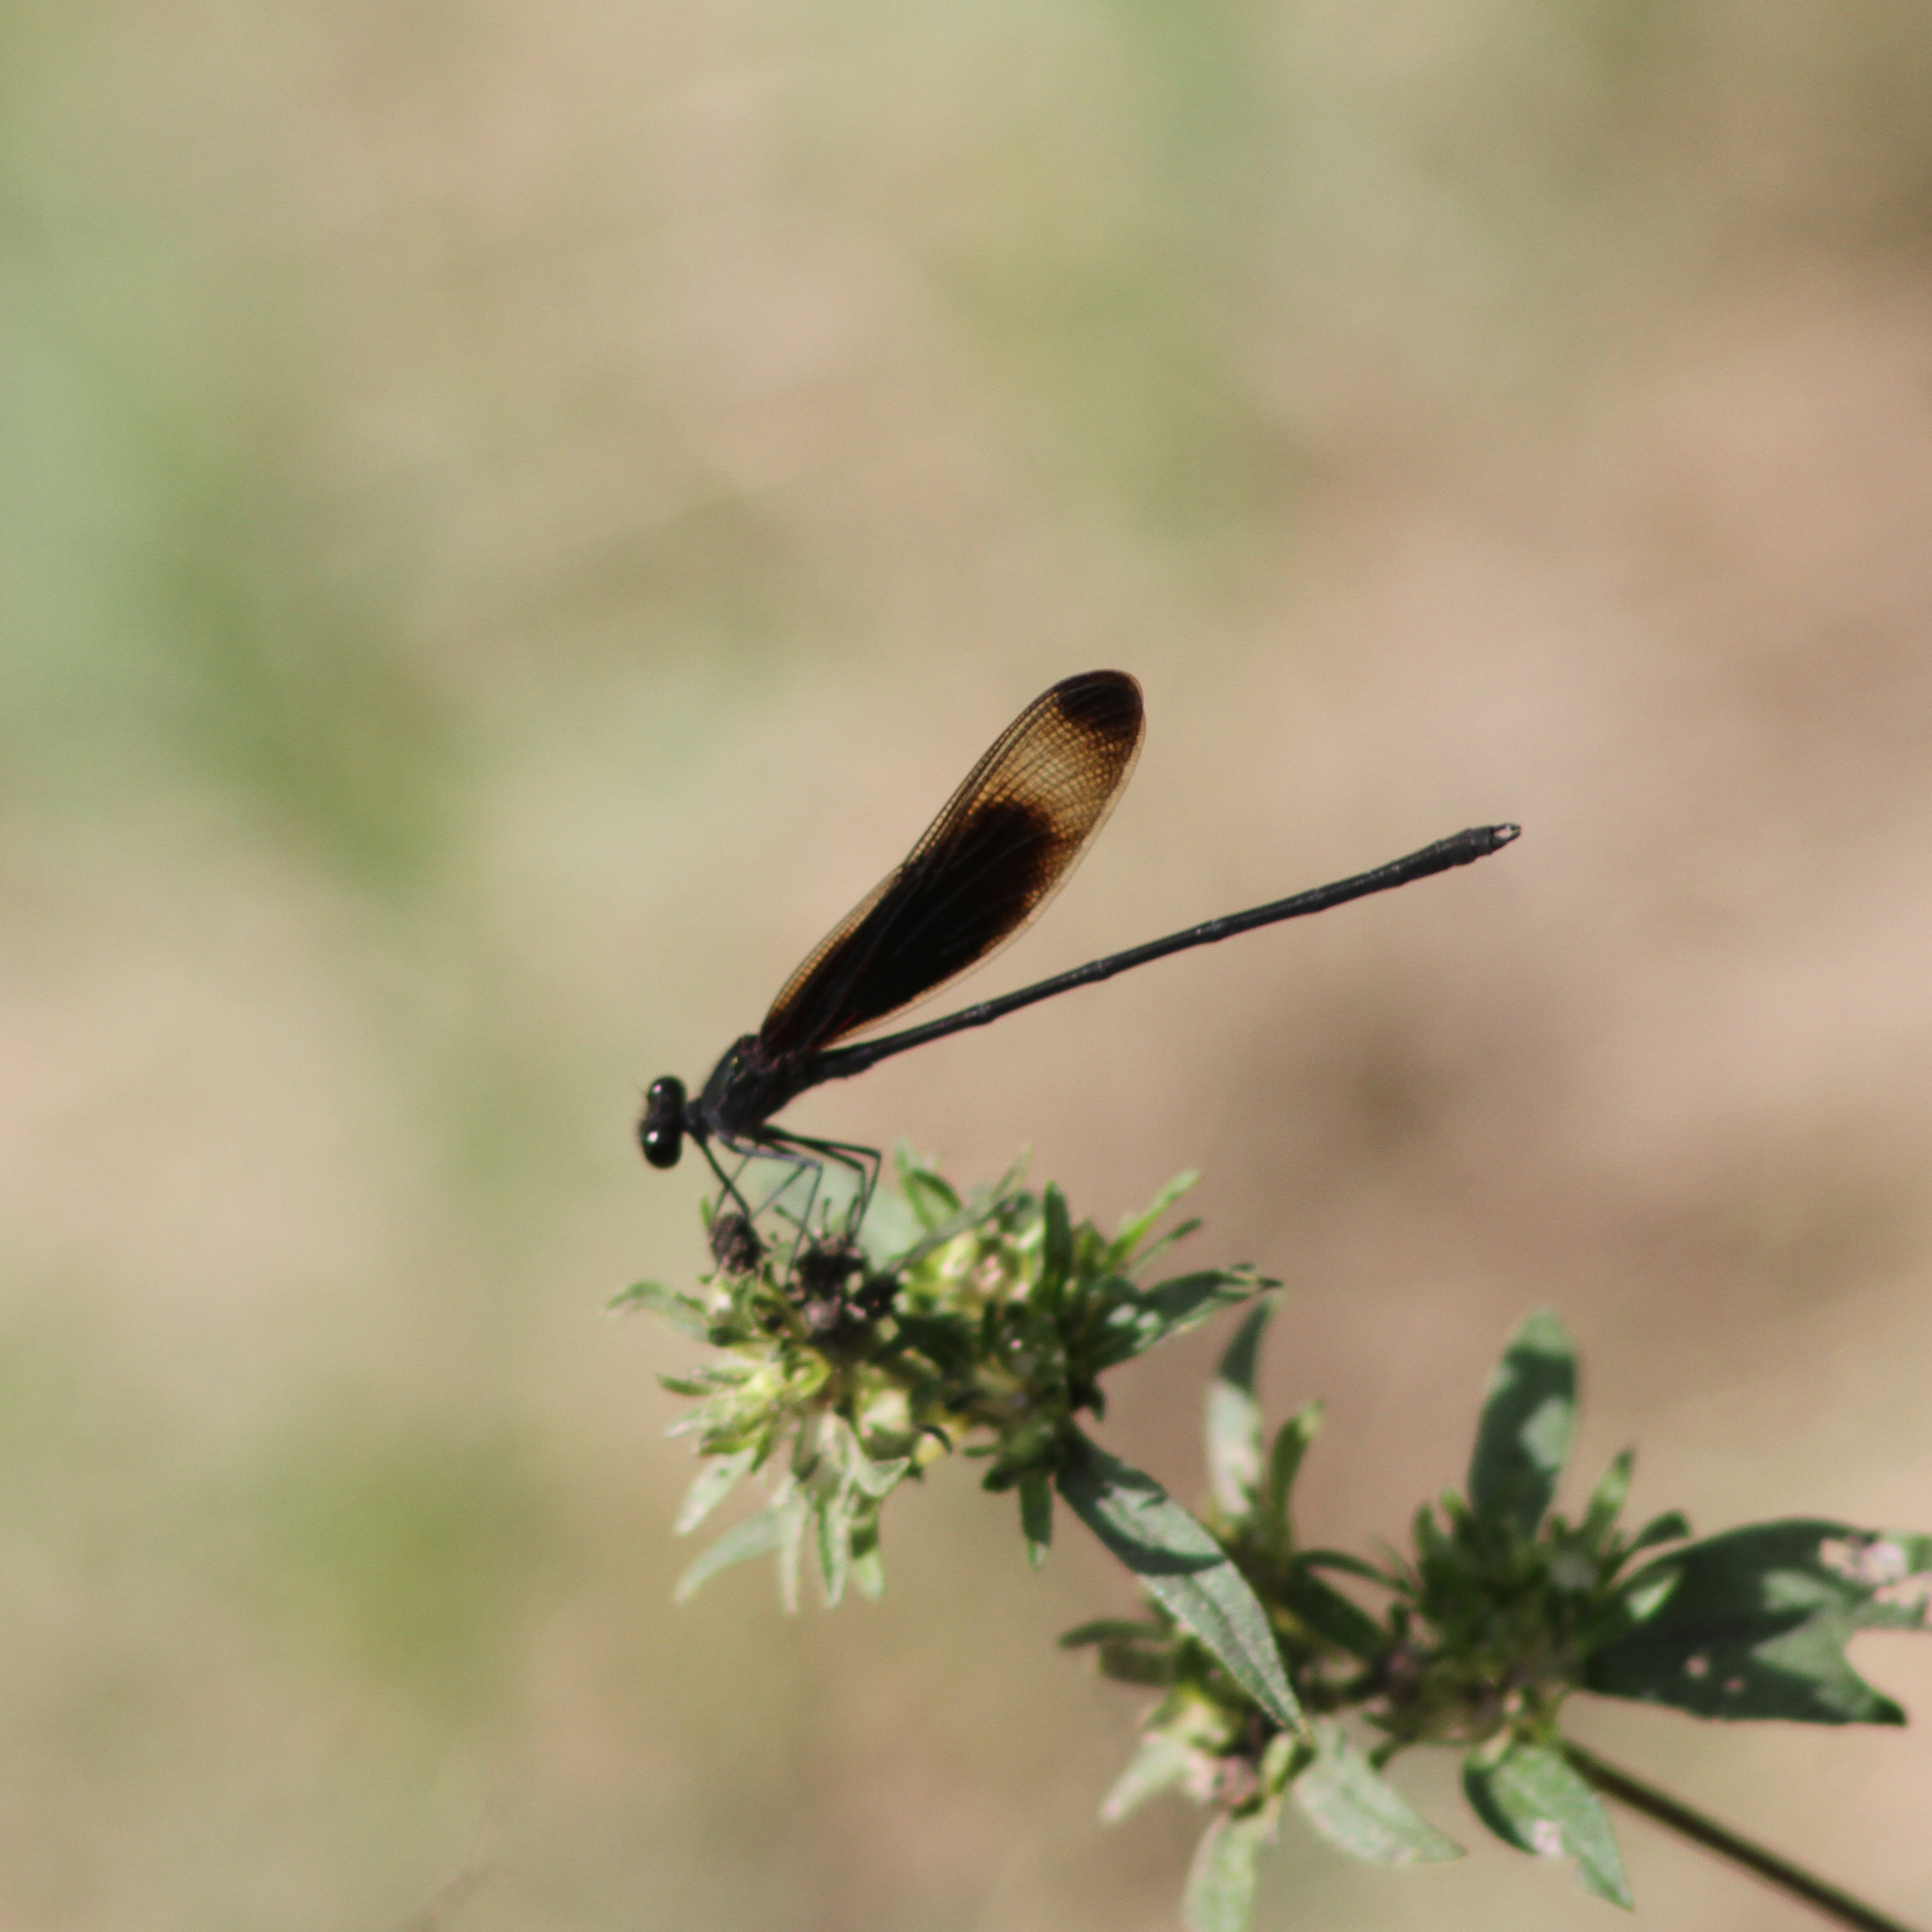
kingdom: Animalia
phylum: Arthropoda
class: Insecta
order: Odonata
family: Calopterygidae
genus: Hetaerina
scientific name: Hetaerina titia
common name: Smoky rubyspot
